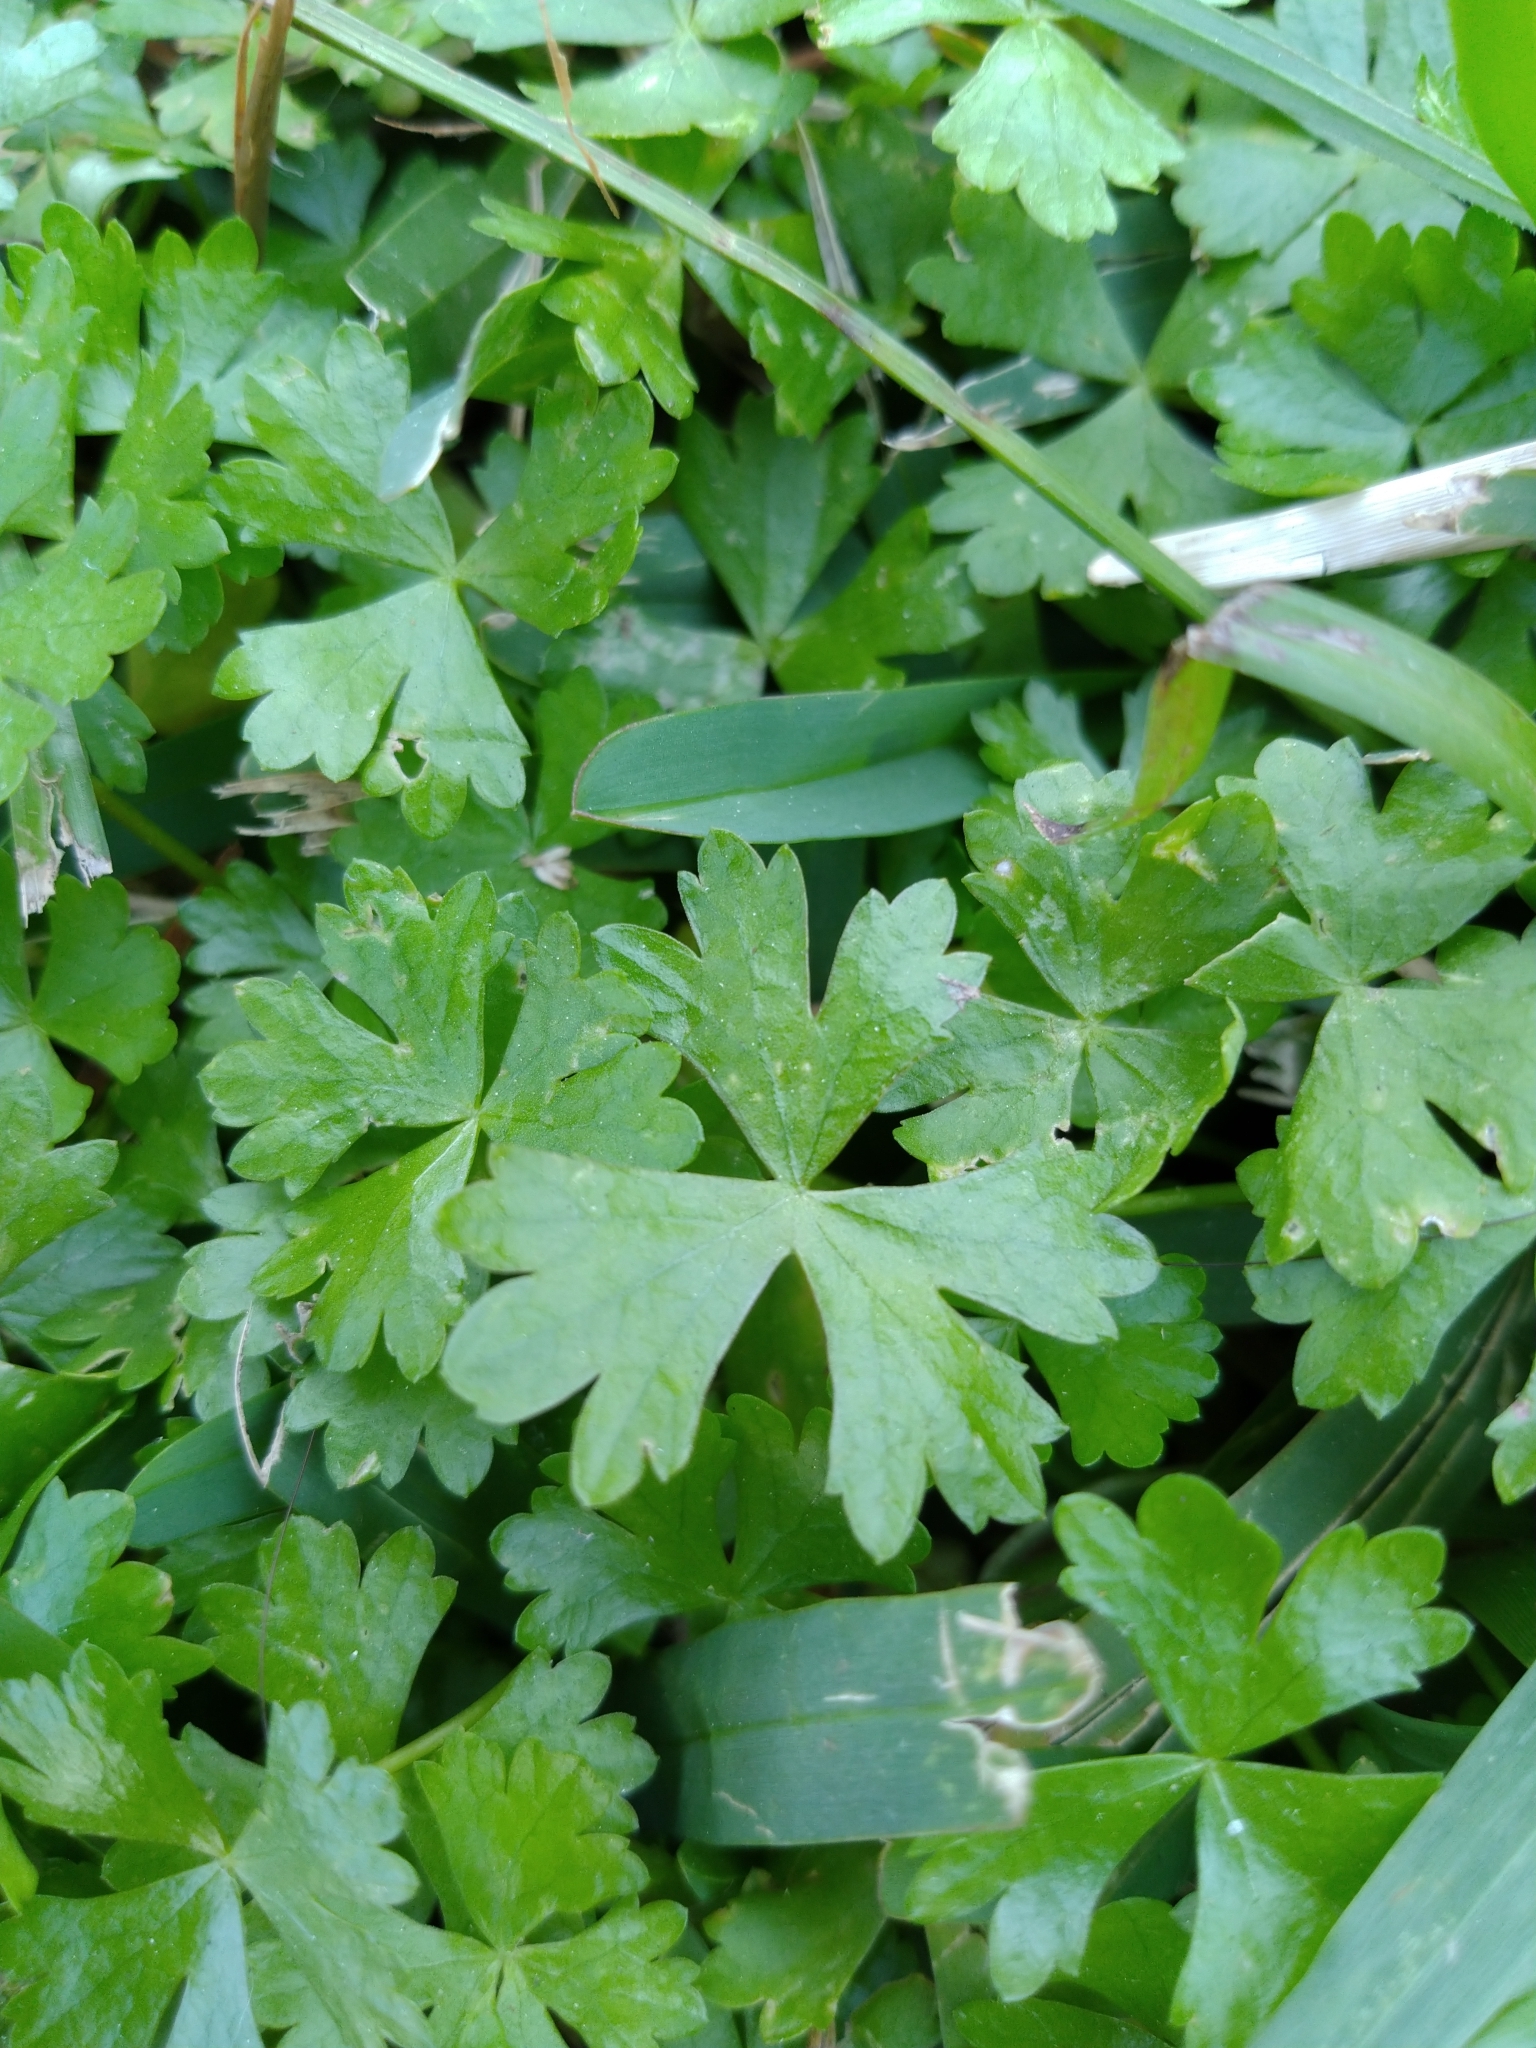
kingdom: Plantae
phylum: Tracheophyta
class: Magnoliopsida
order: Apiales
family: Araliaceae
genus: Hydrocotyle
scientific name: Hydrocotyle batrachium
